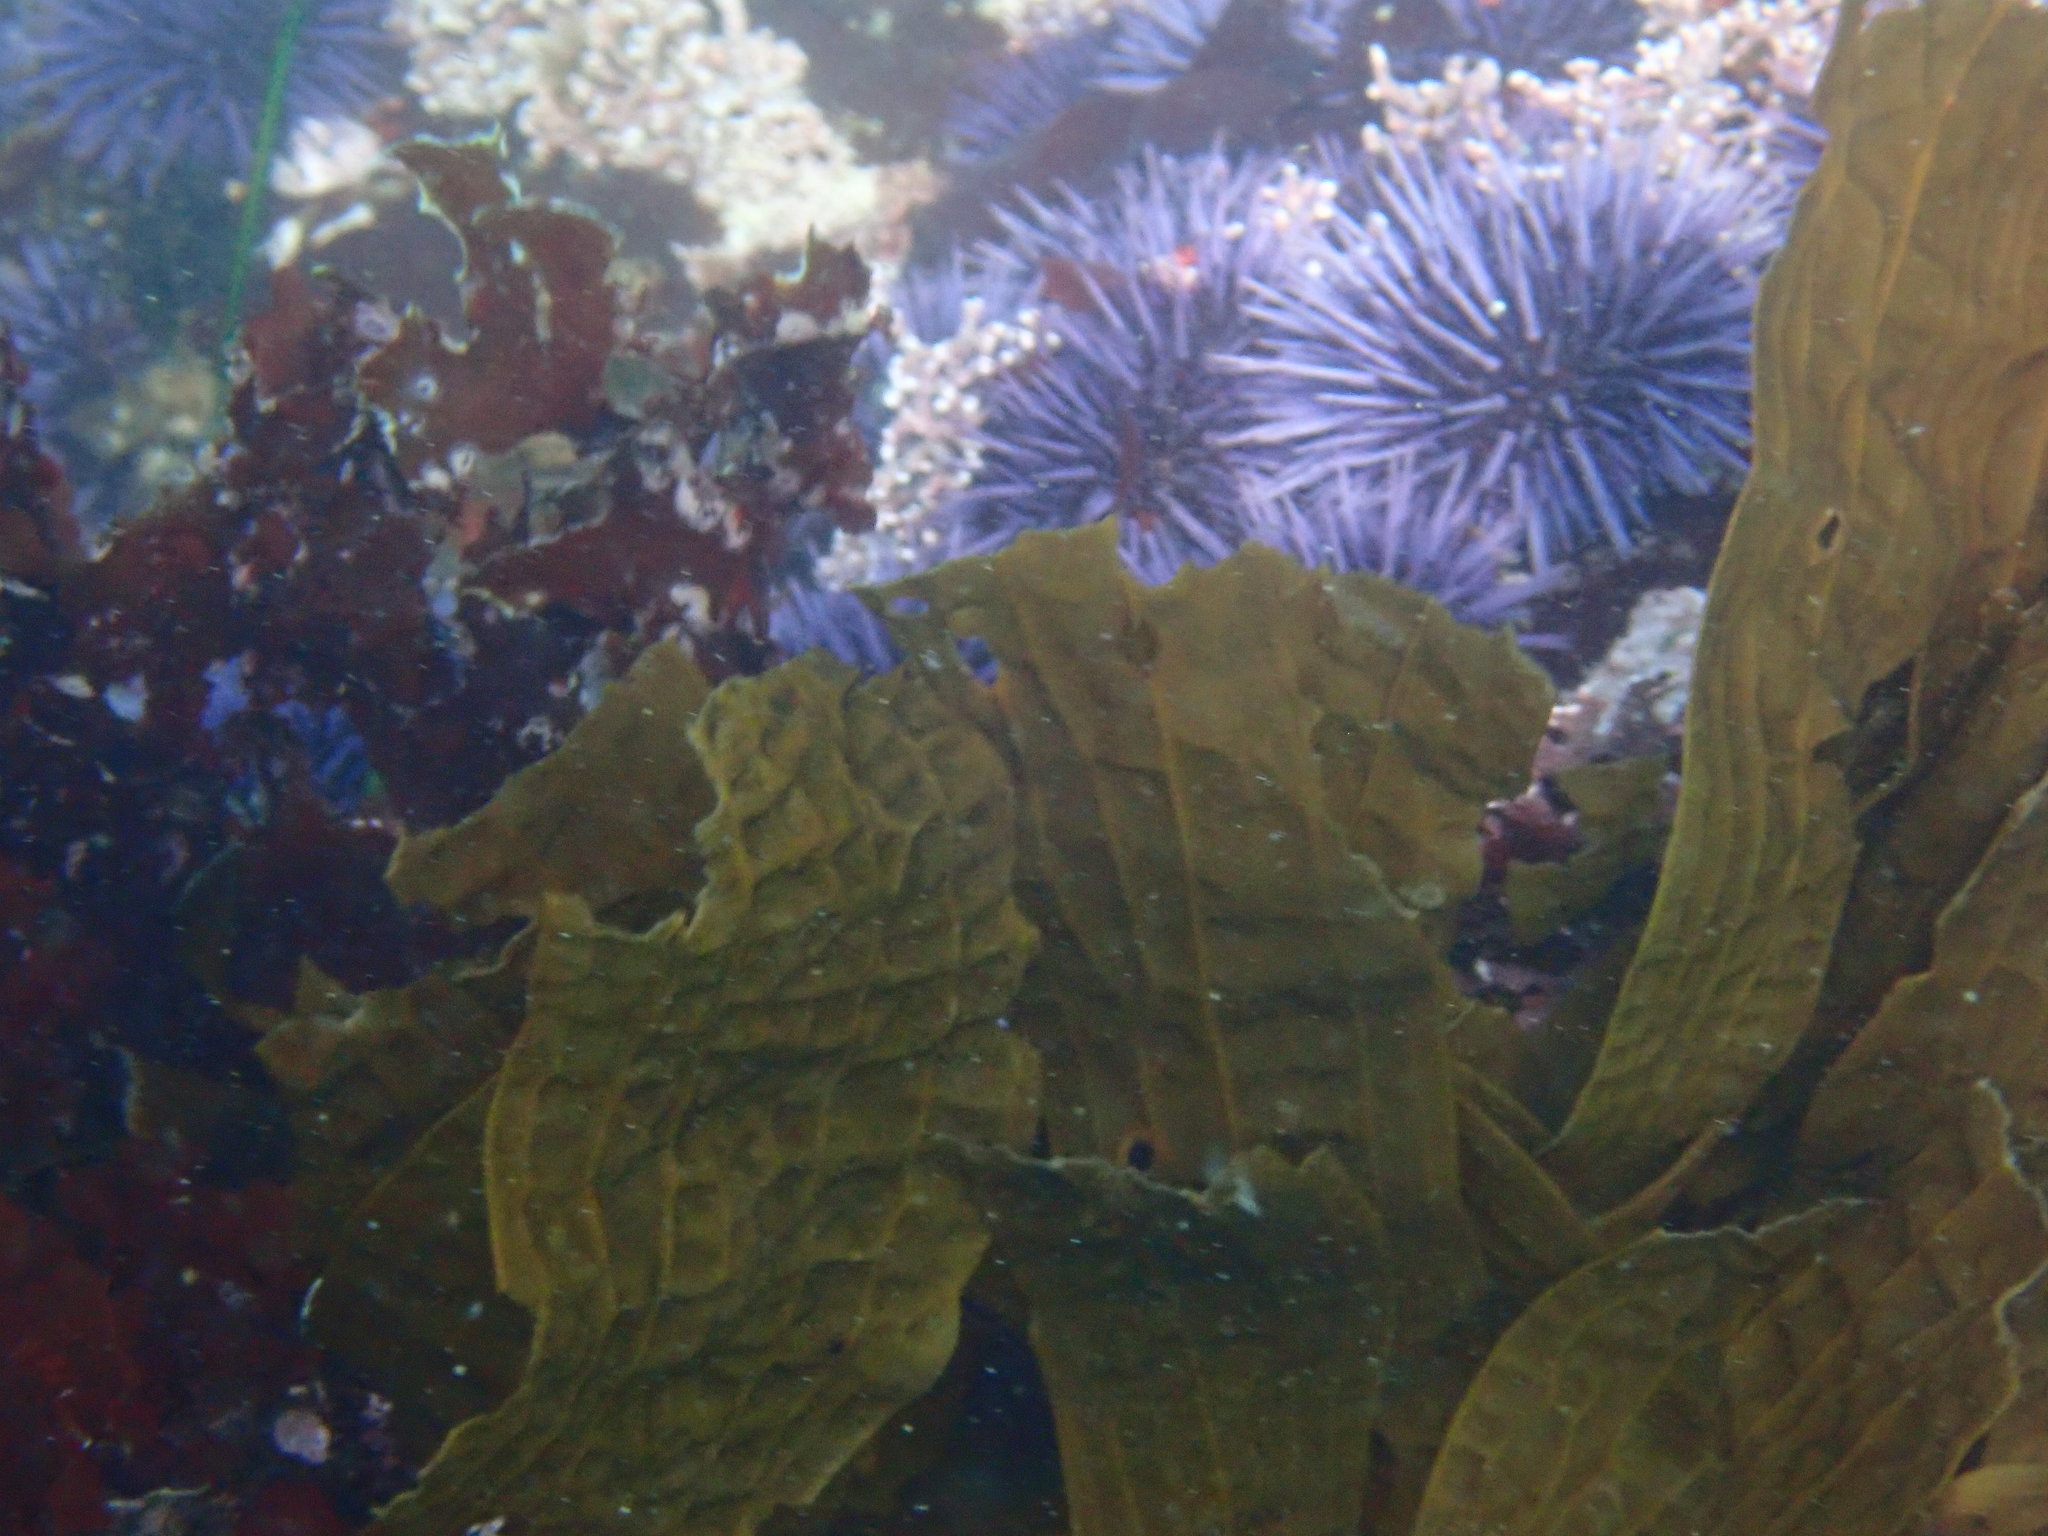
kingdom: Chromista
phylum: Ochrophyta
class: Phaeophyceae
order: Laminariales
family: Costariaceae
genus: Dictyoneurum
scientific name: Dictyoneurum californicum
